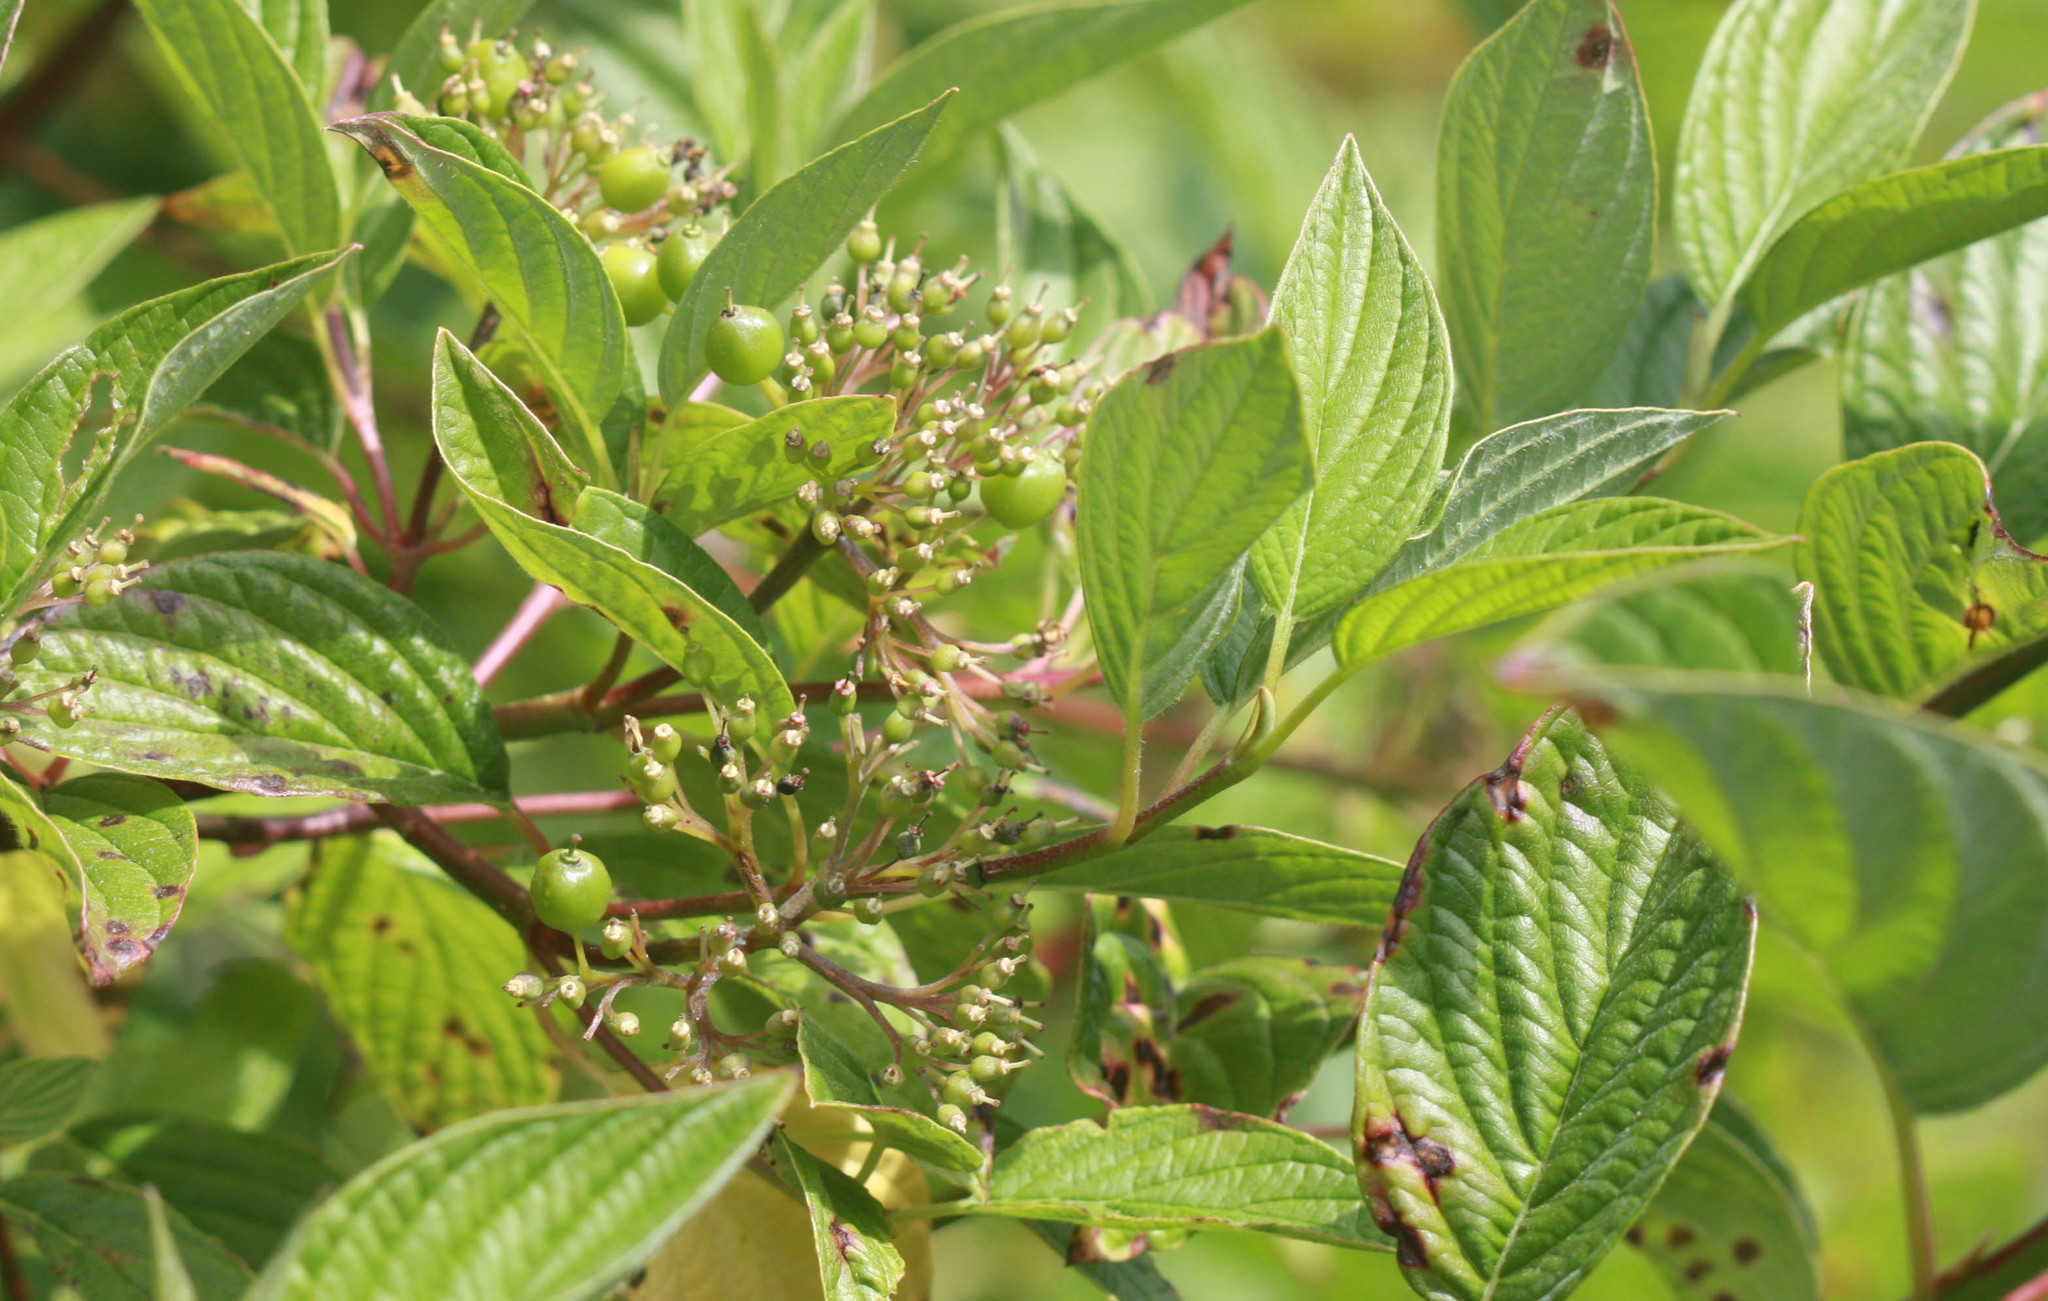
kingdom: Plantae
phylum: Tracheophyta
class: Magnoliopsida
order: Cornales
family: Cornaceae
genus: Cornus
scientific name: Cornus sericea
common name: Red-osier dogwood
